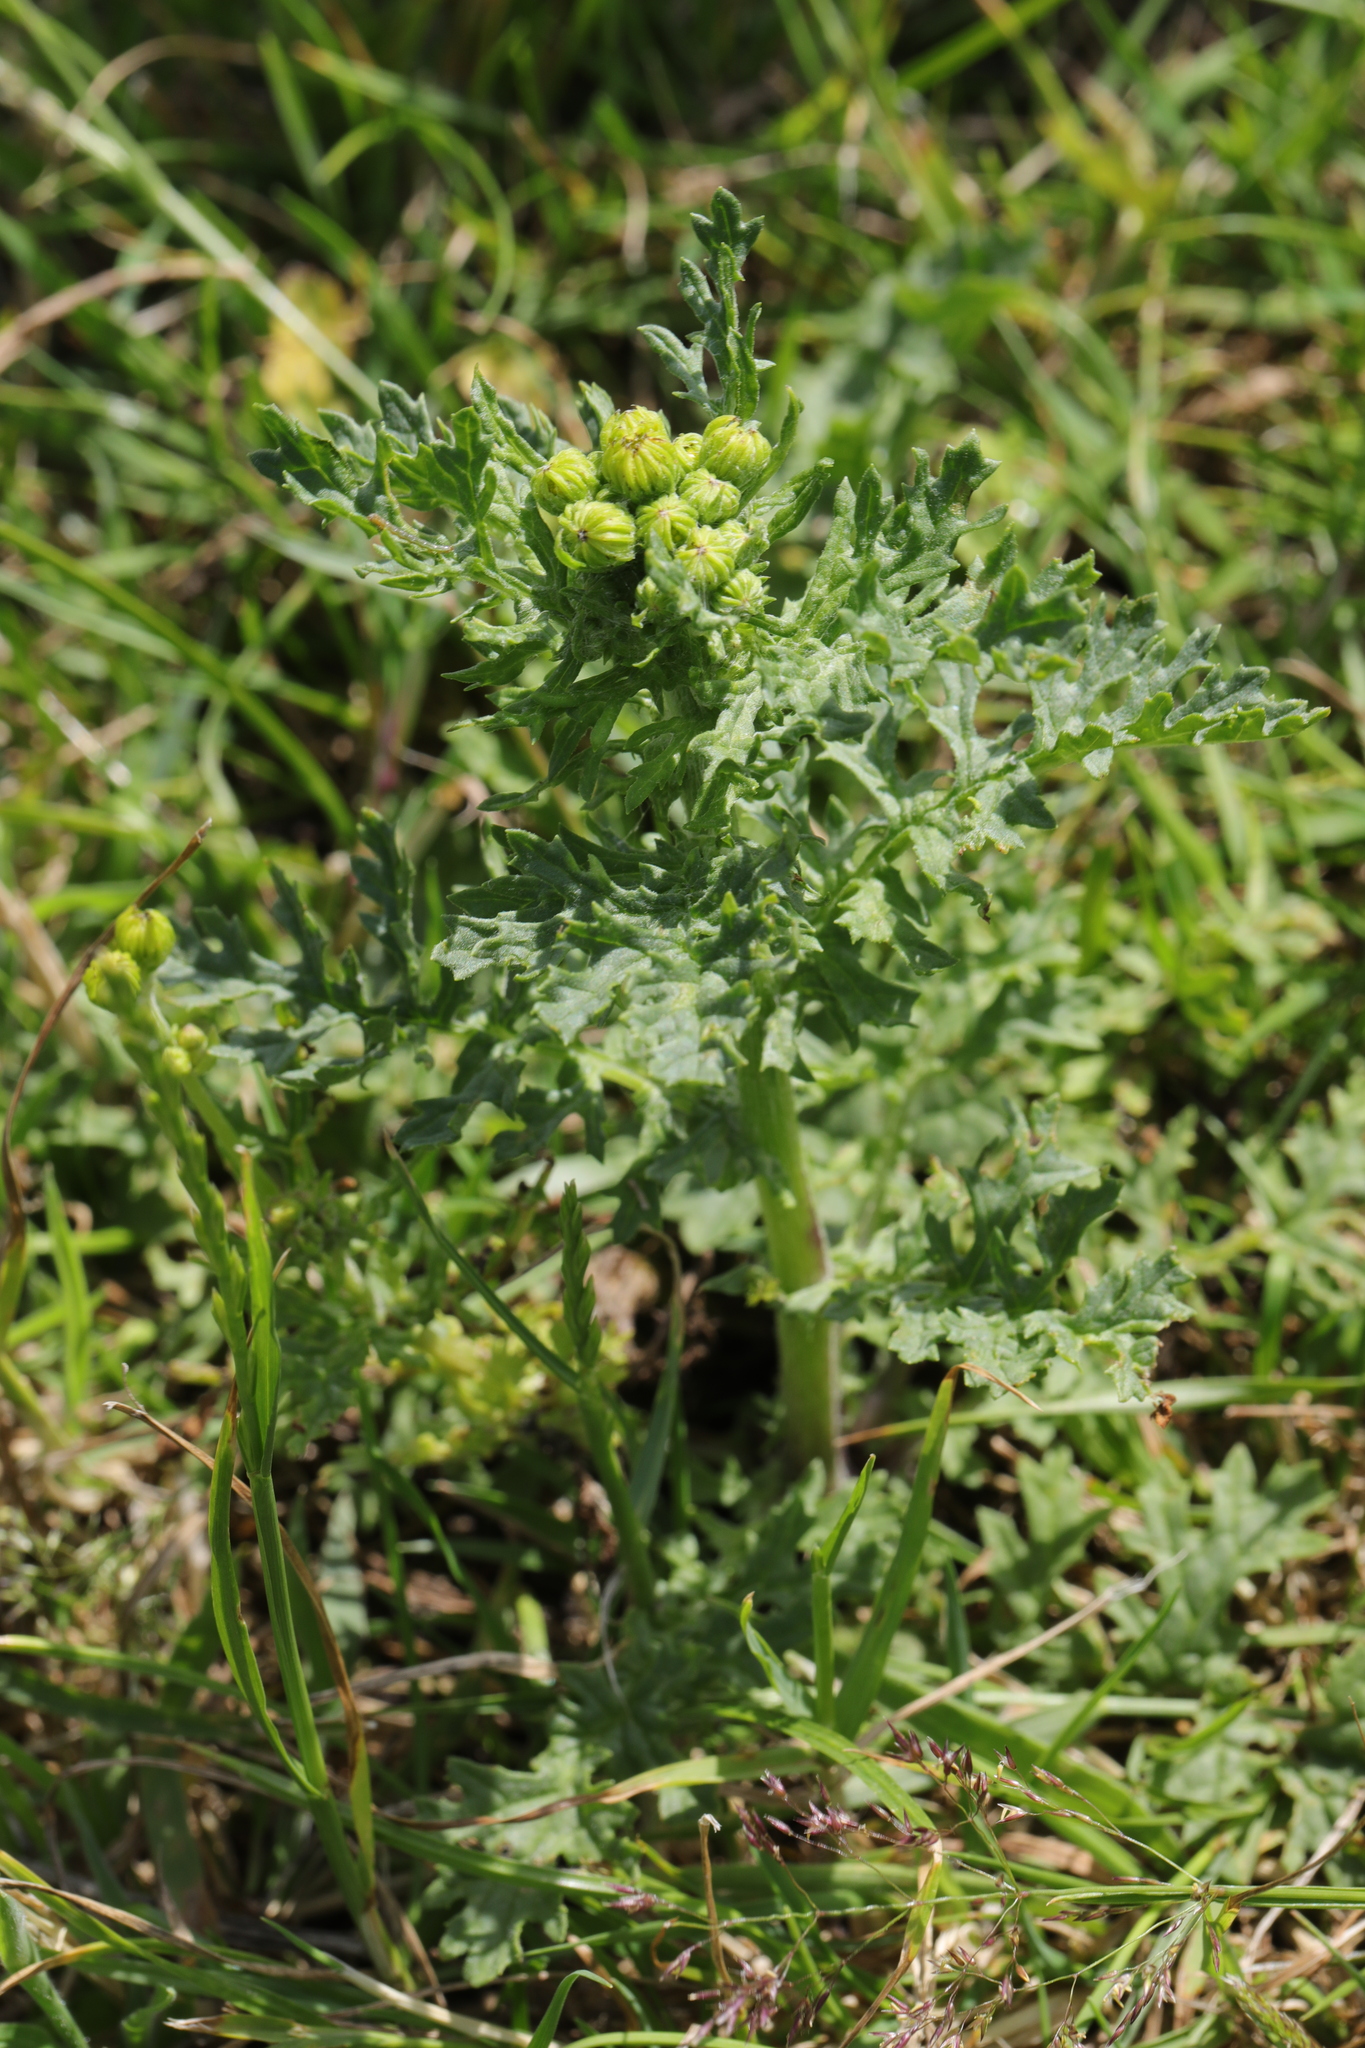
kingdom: Plantae
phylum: Tracheophyta
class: Magnoliopsida
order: Asterales
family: Asteraceae
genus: Jacobaea
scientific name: Jacobaea vulgaris
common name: Stinking willie
